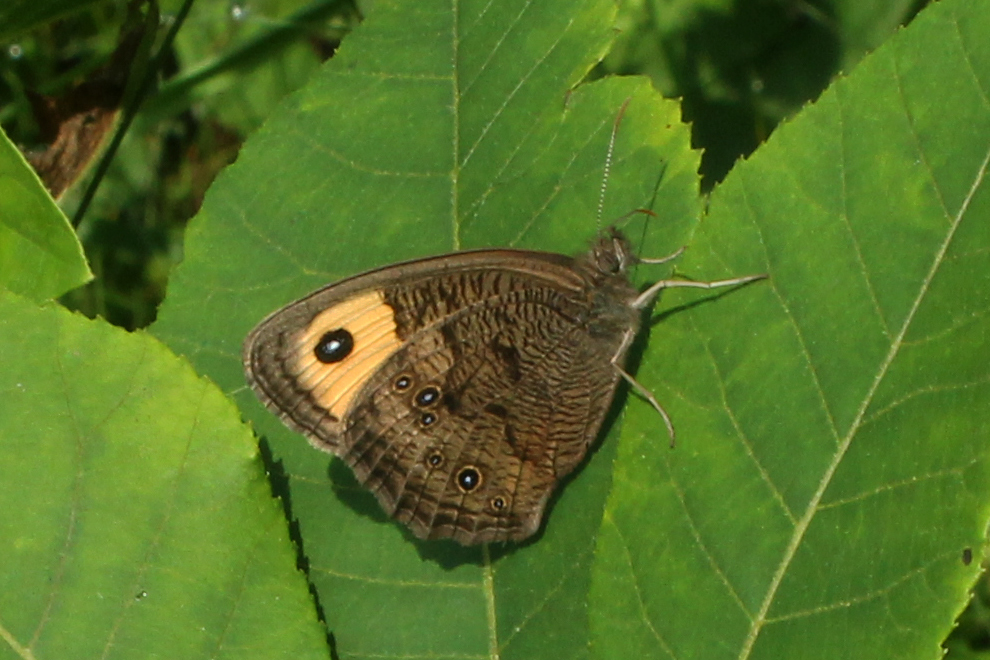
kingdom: Animalia
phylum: Arthropoda
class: Insecta
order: Lepidoptera
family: Nymphalidae
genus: Cercyonis
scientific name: Cercyonis pegala
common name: Common wood-nymph
